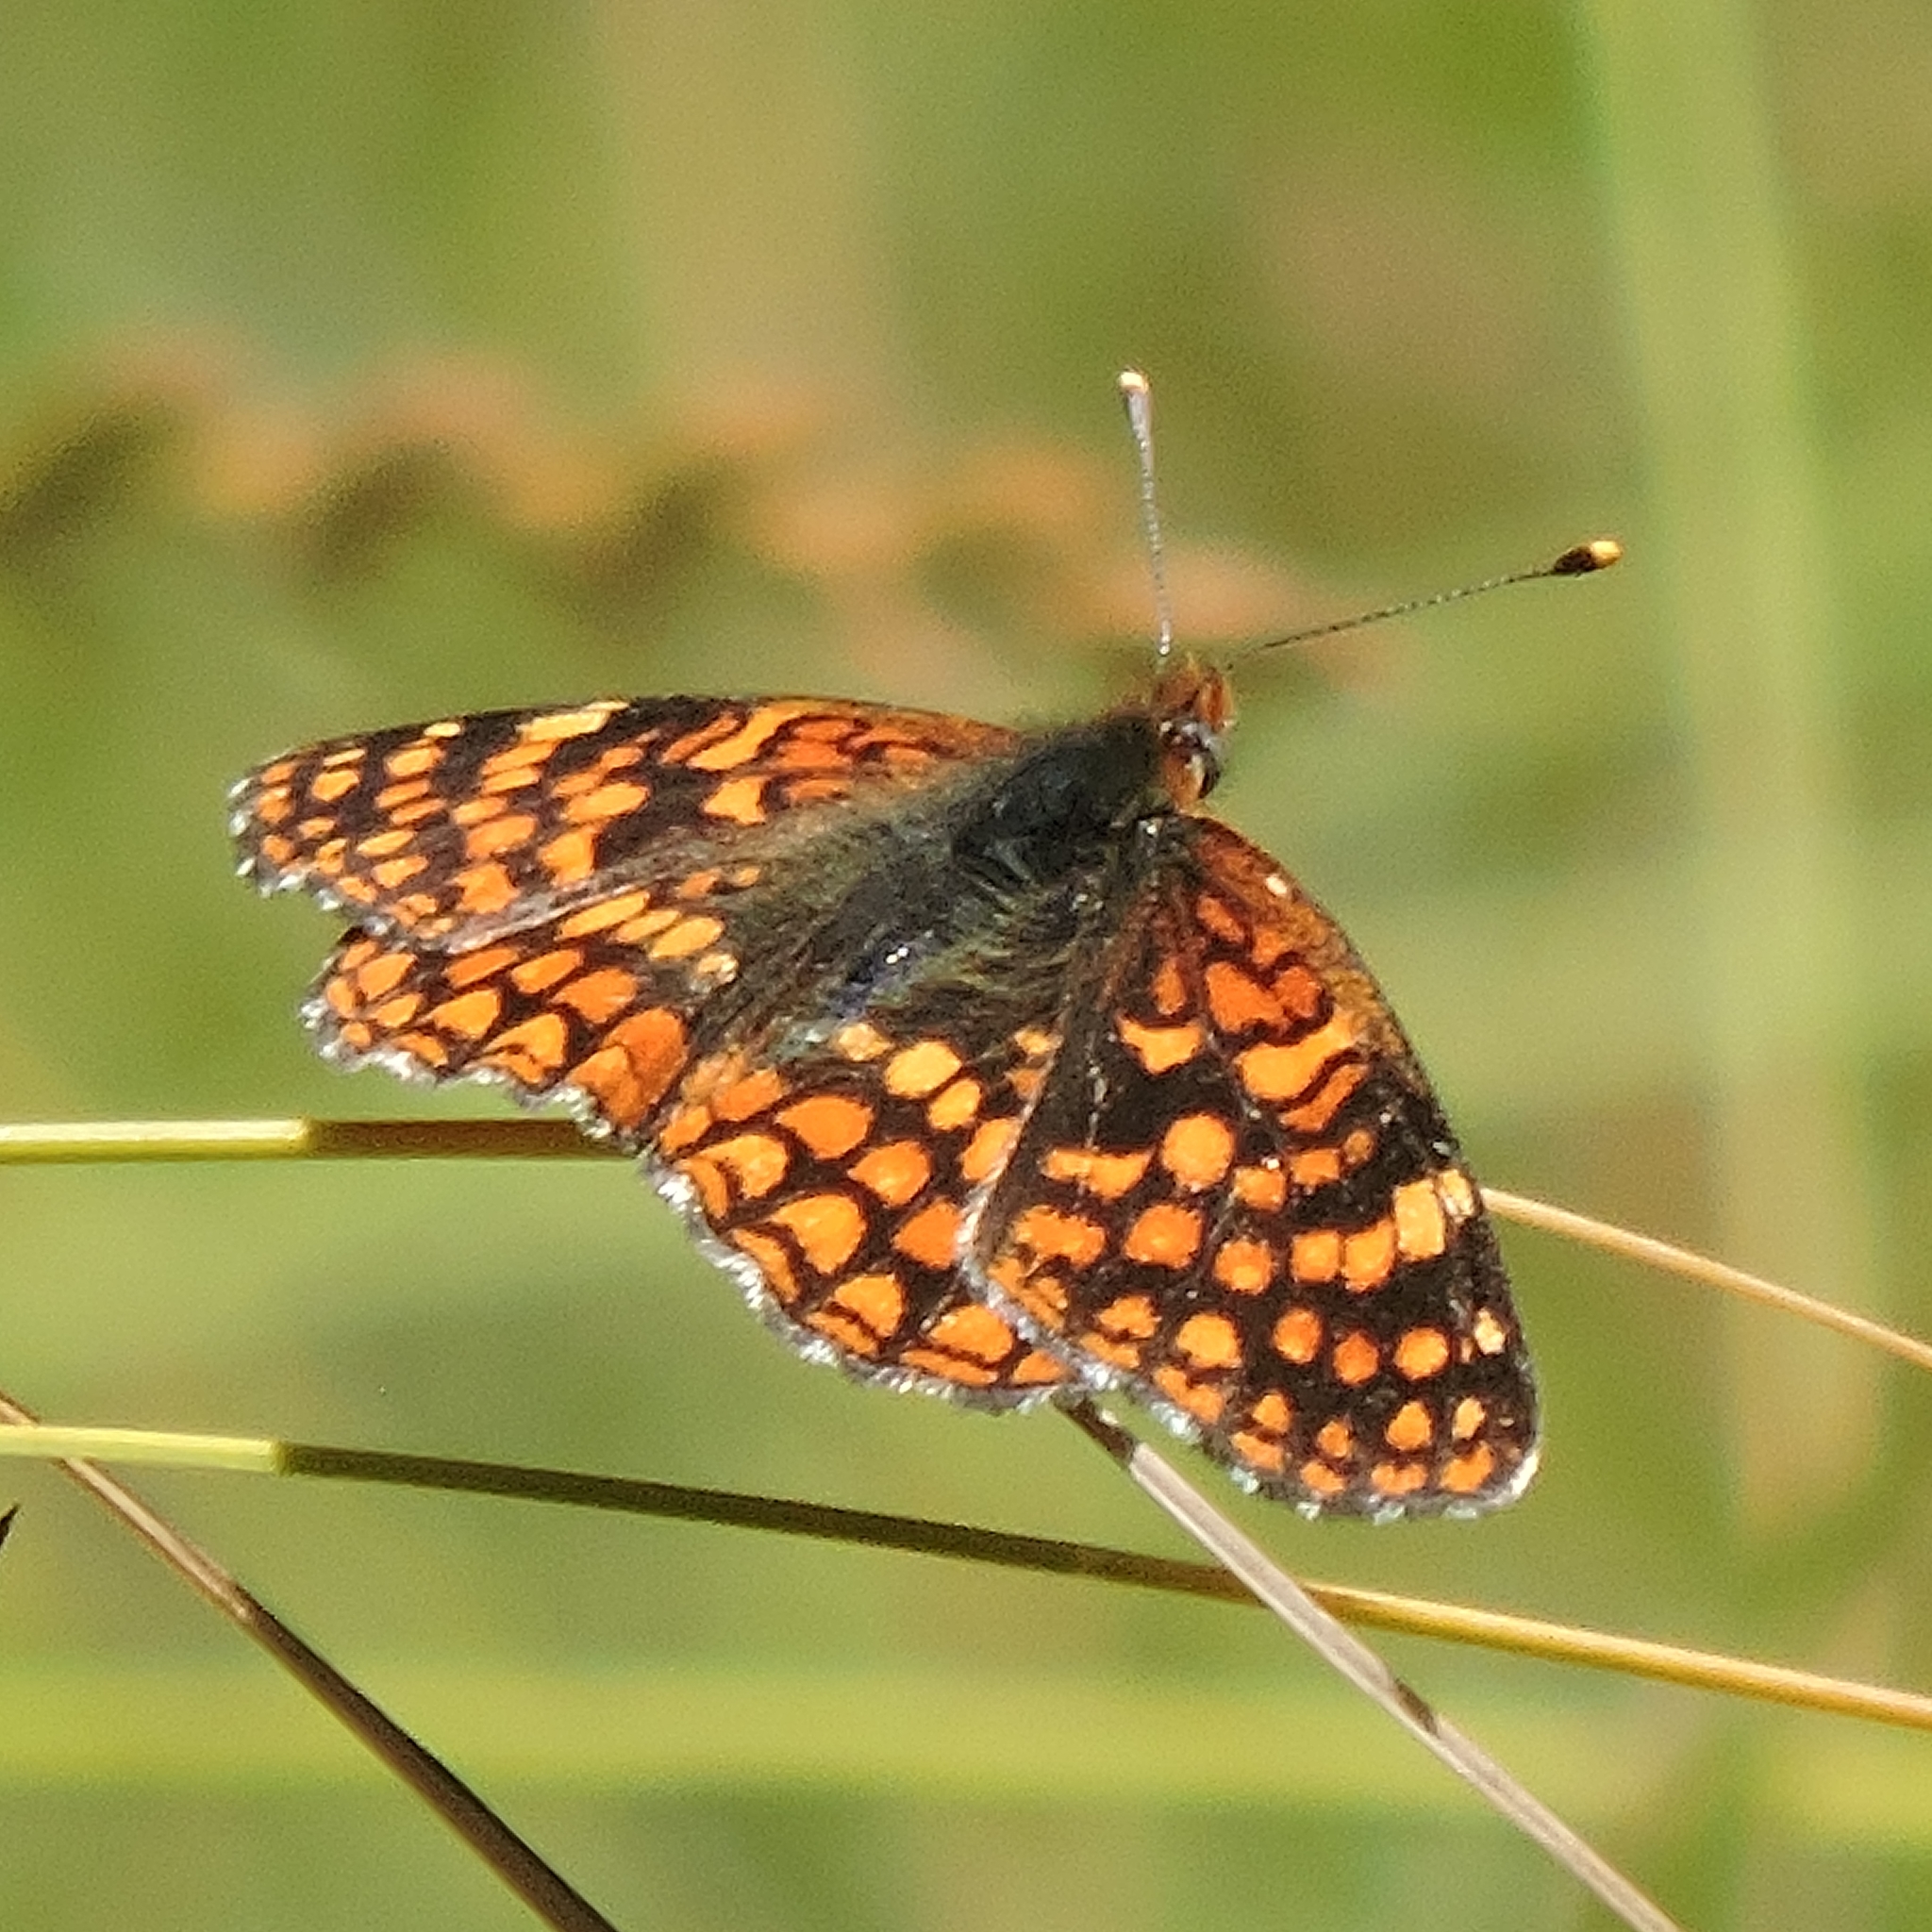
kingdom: Animalia
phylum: Arthropoda
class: Insecta
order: Lepidoptera
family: Nymphalidae
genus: Chlosyne
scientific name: Chlosyne palla
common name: Northern checkerspot
